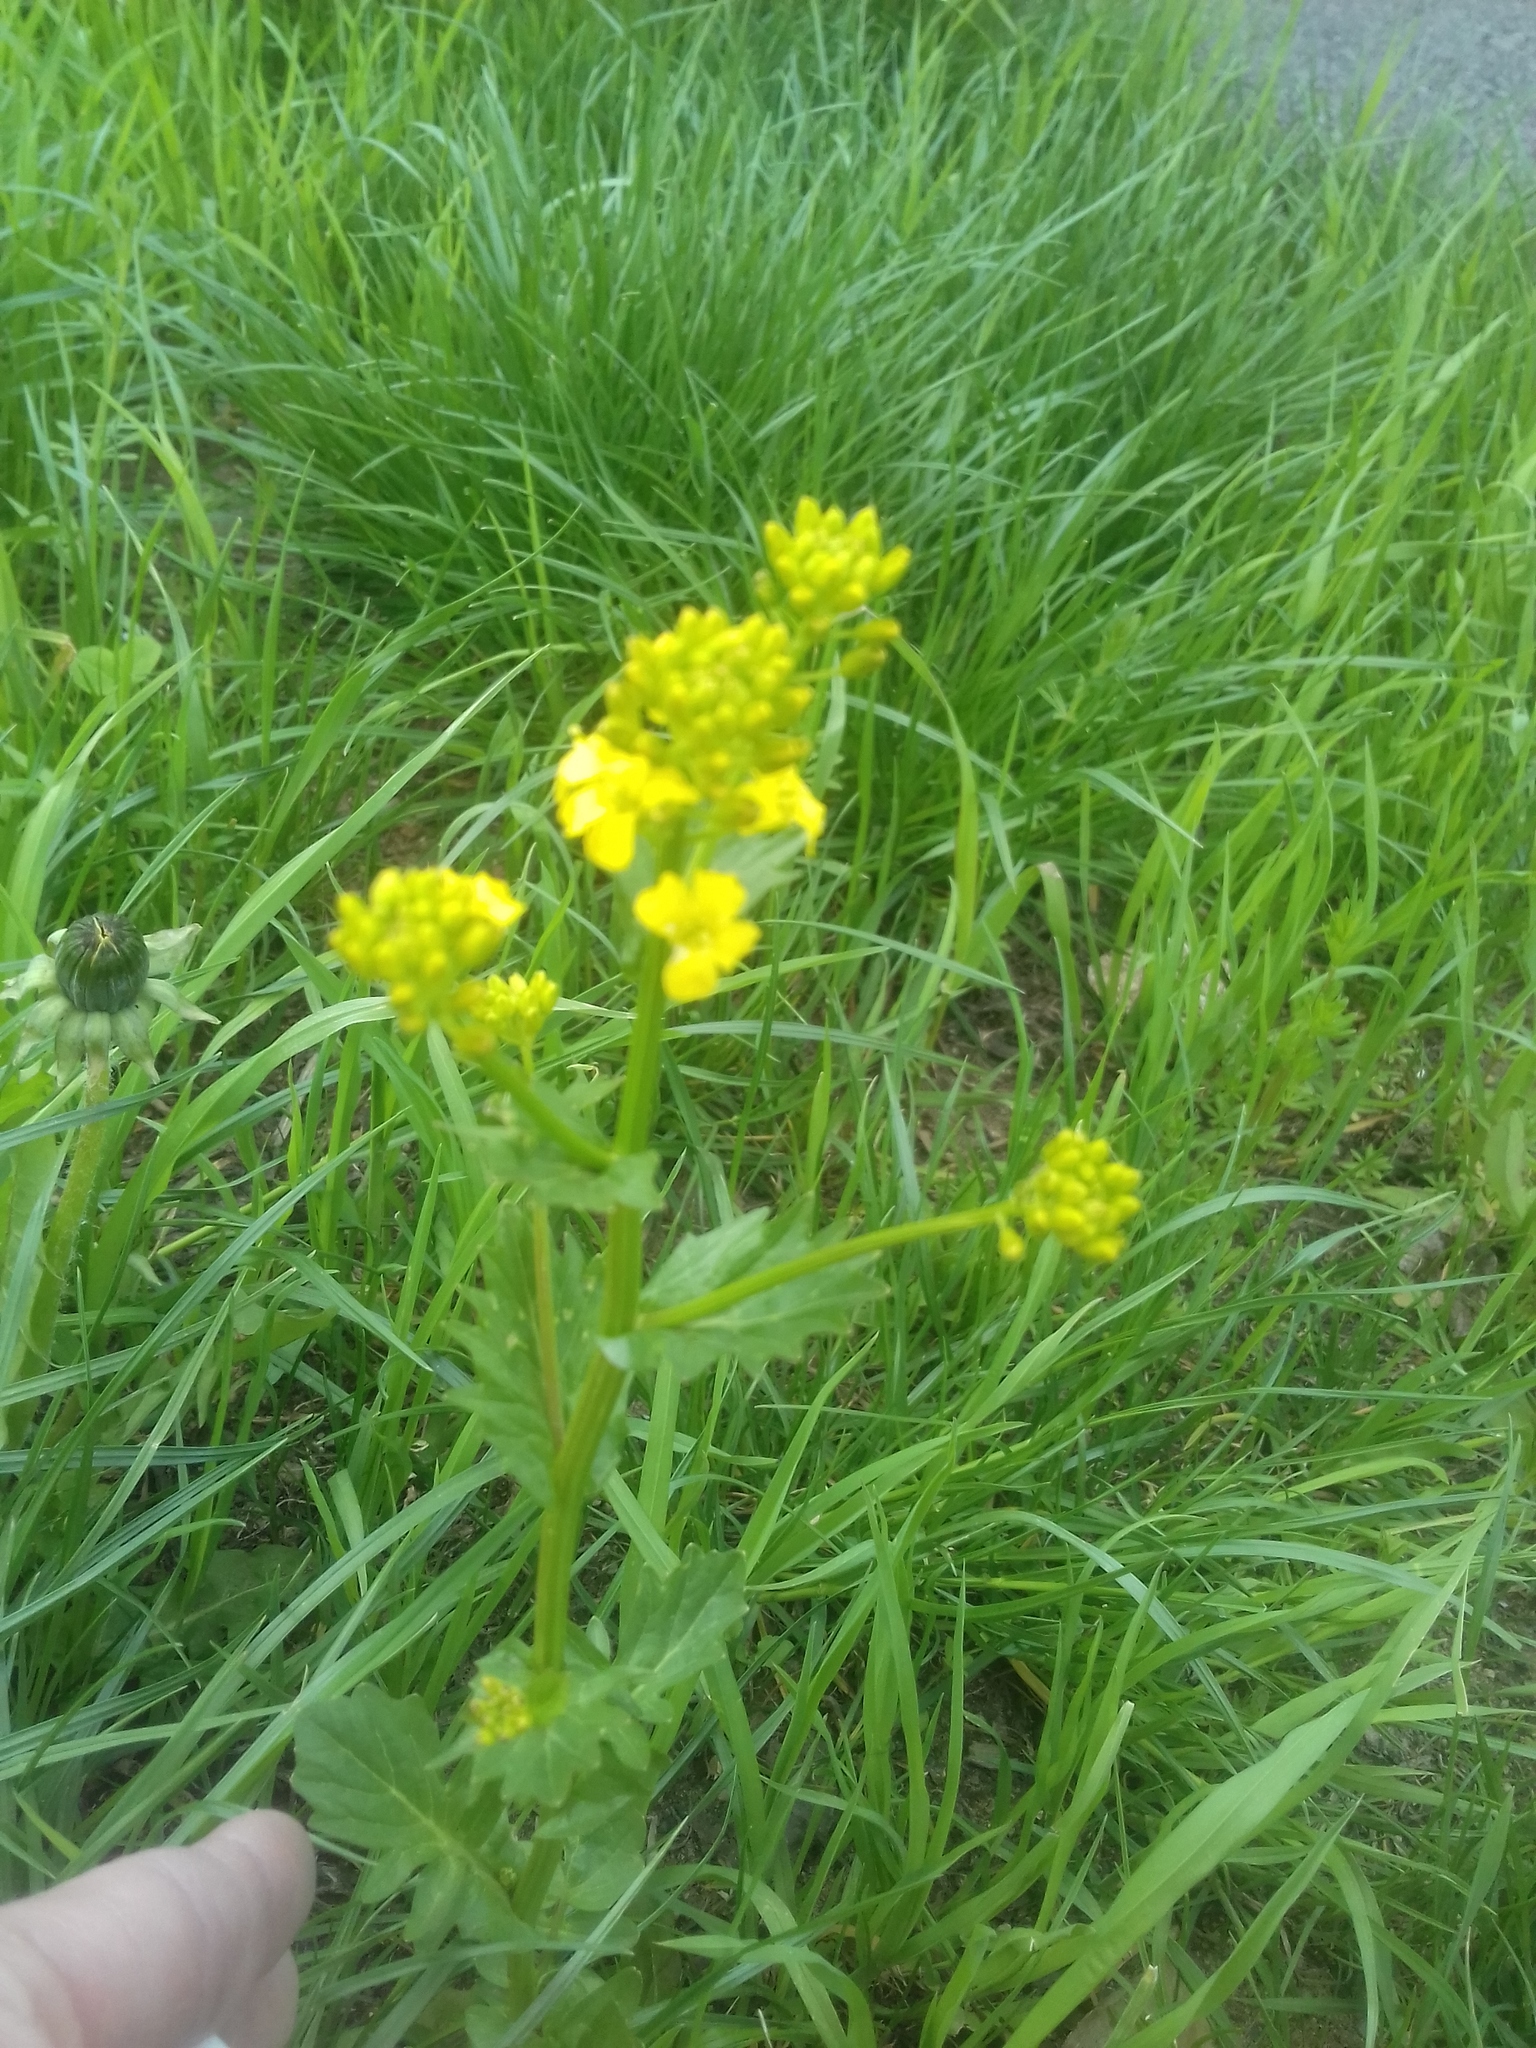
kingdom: Plantae
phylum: Tracheophyta
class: Magnoliopsida
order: Brassicales
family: Brassicaceae
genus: Barbarea
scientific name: Barbarea vulgaris
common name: Cressy-greens
